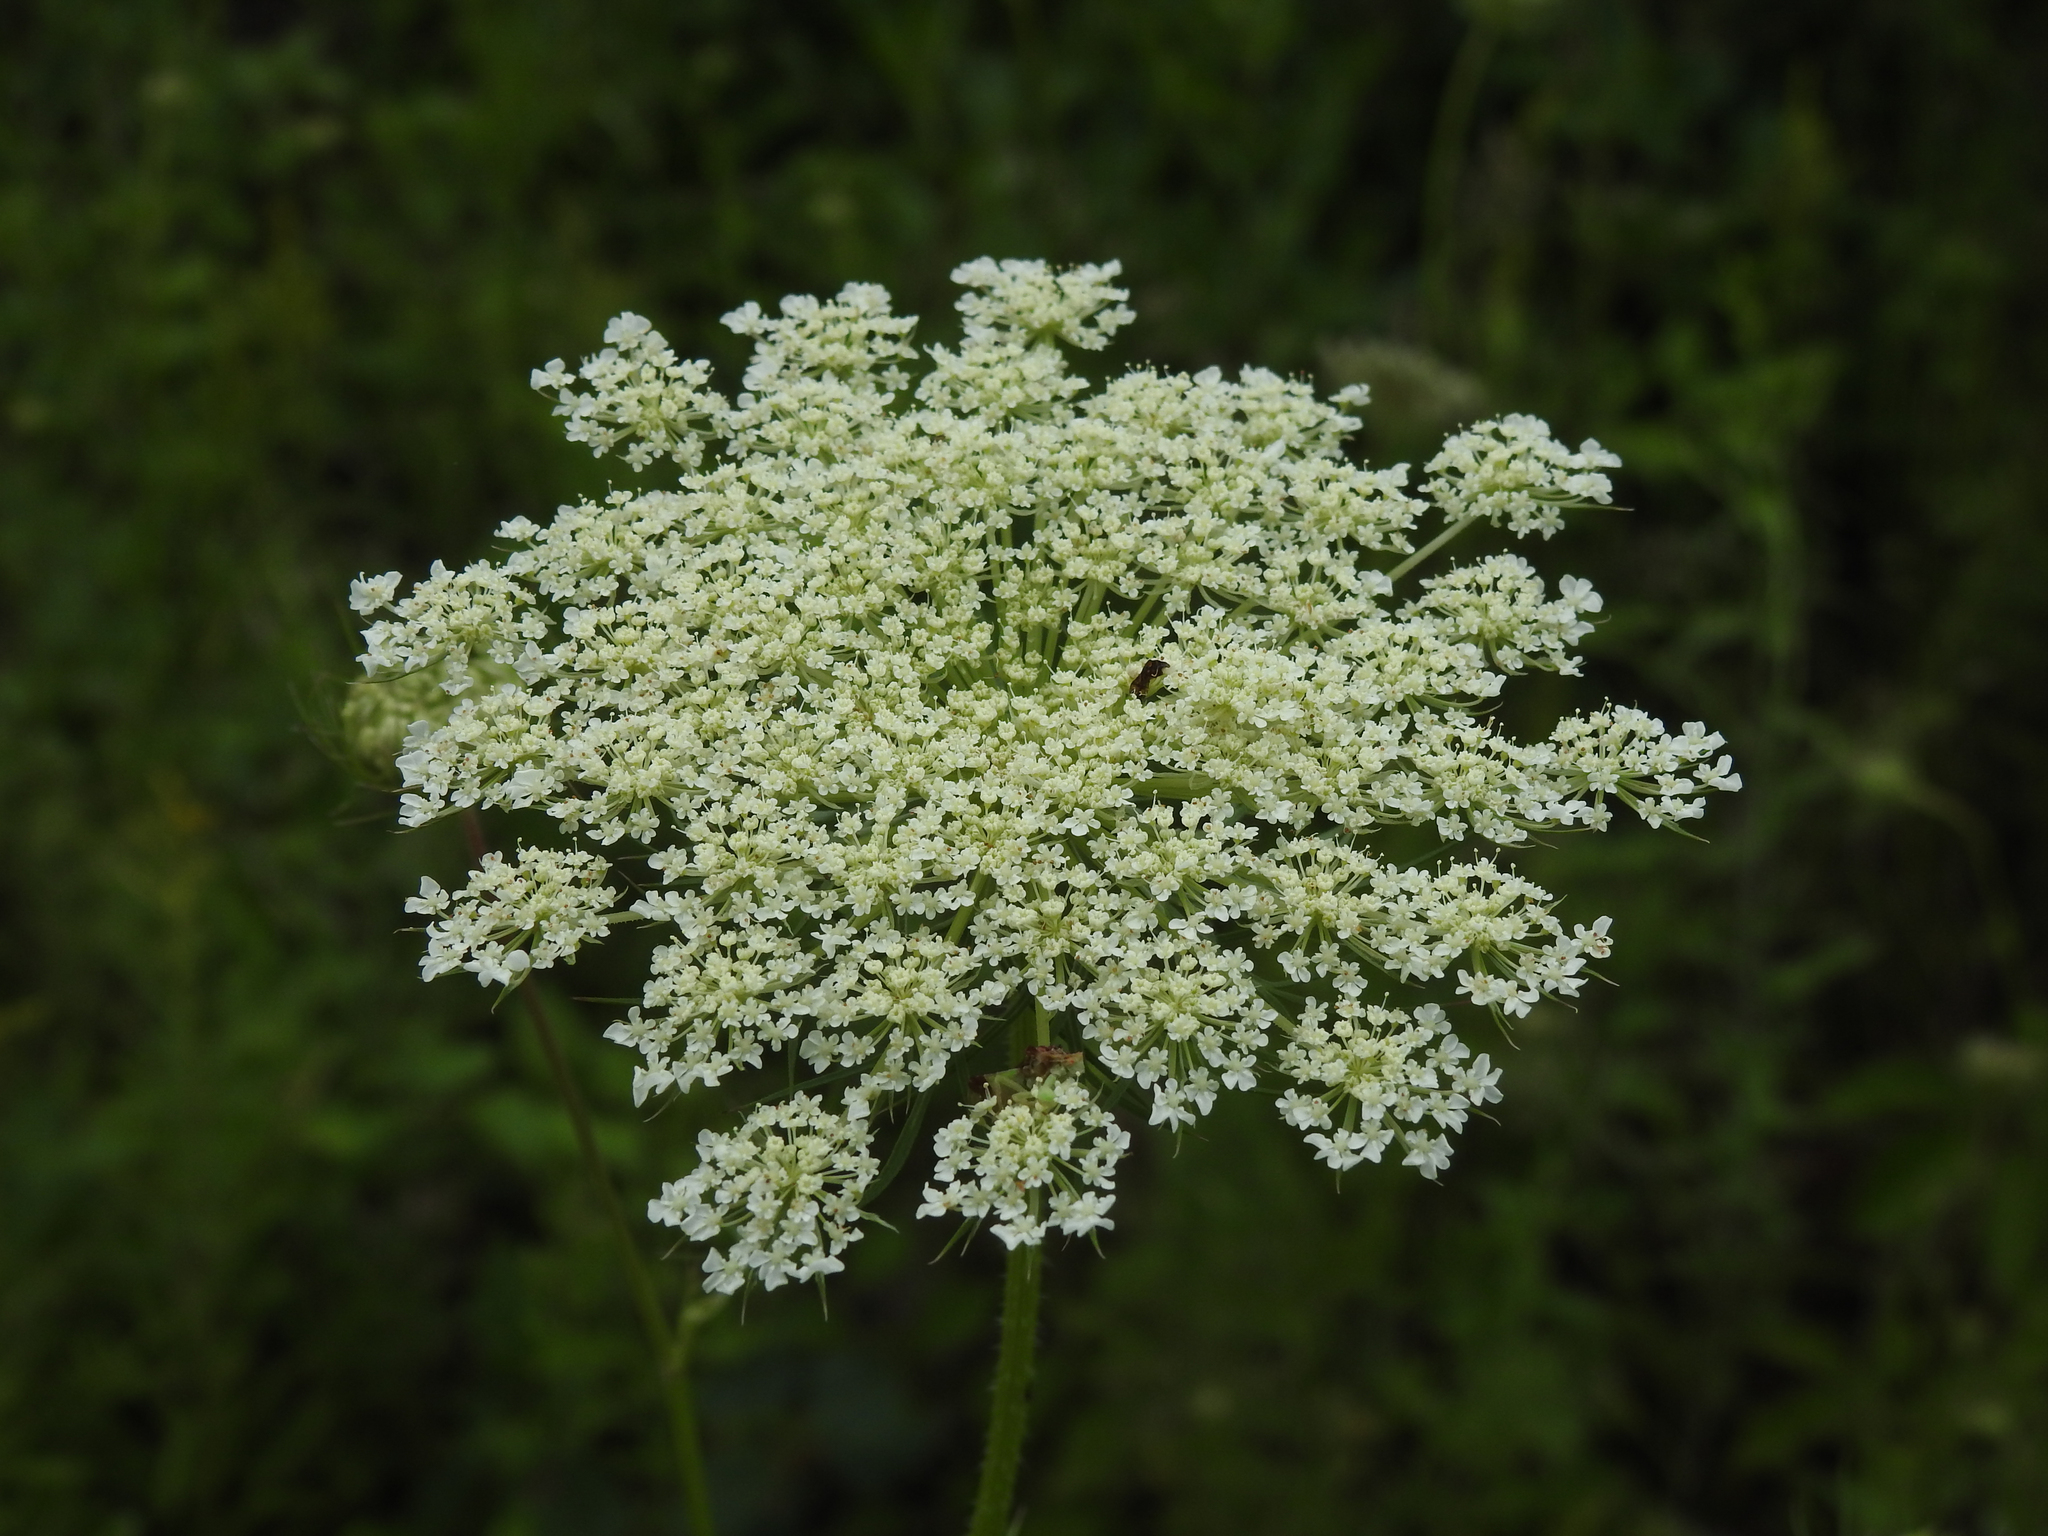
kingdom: Plantae
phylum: Tracheophyta
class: Magnoliopsida
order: Apiales
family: Apiaceae
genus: Daucus
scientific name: Daucus carota
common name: Wild carrot
